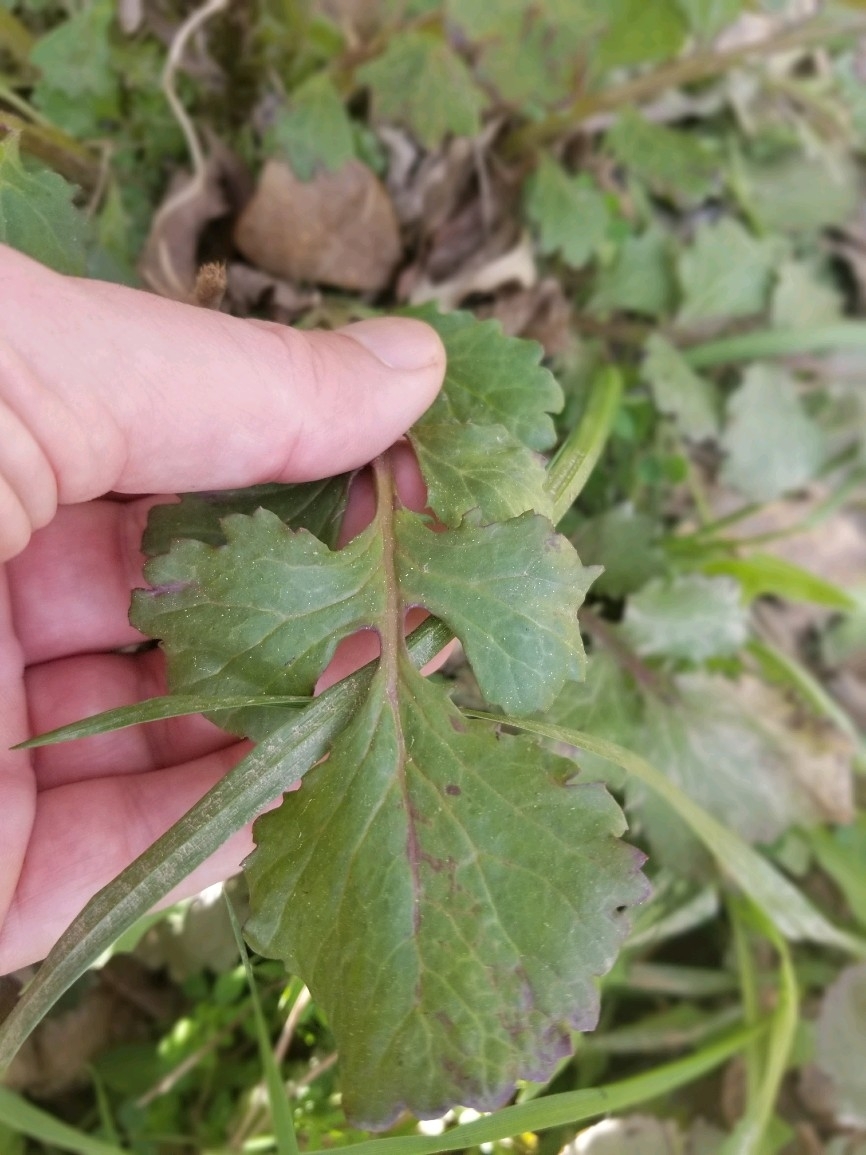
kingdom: Plantae
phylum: Tracheophyta
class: Magnoliopsida
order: Asterales
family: Asteraceae
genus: Packera
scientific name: Packera glabella
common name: Butterweed
